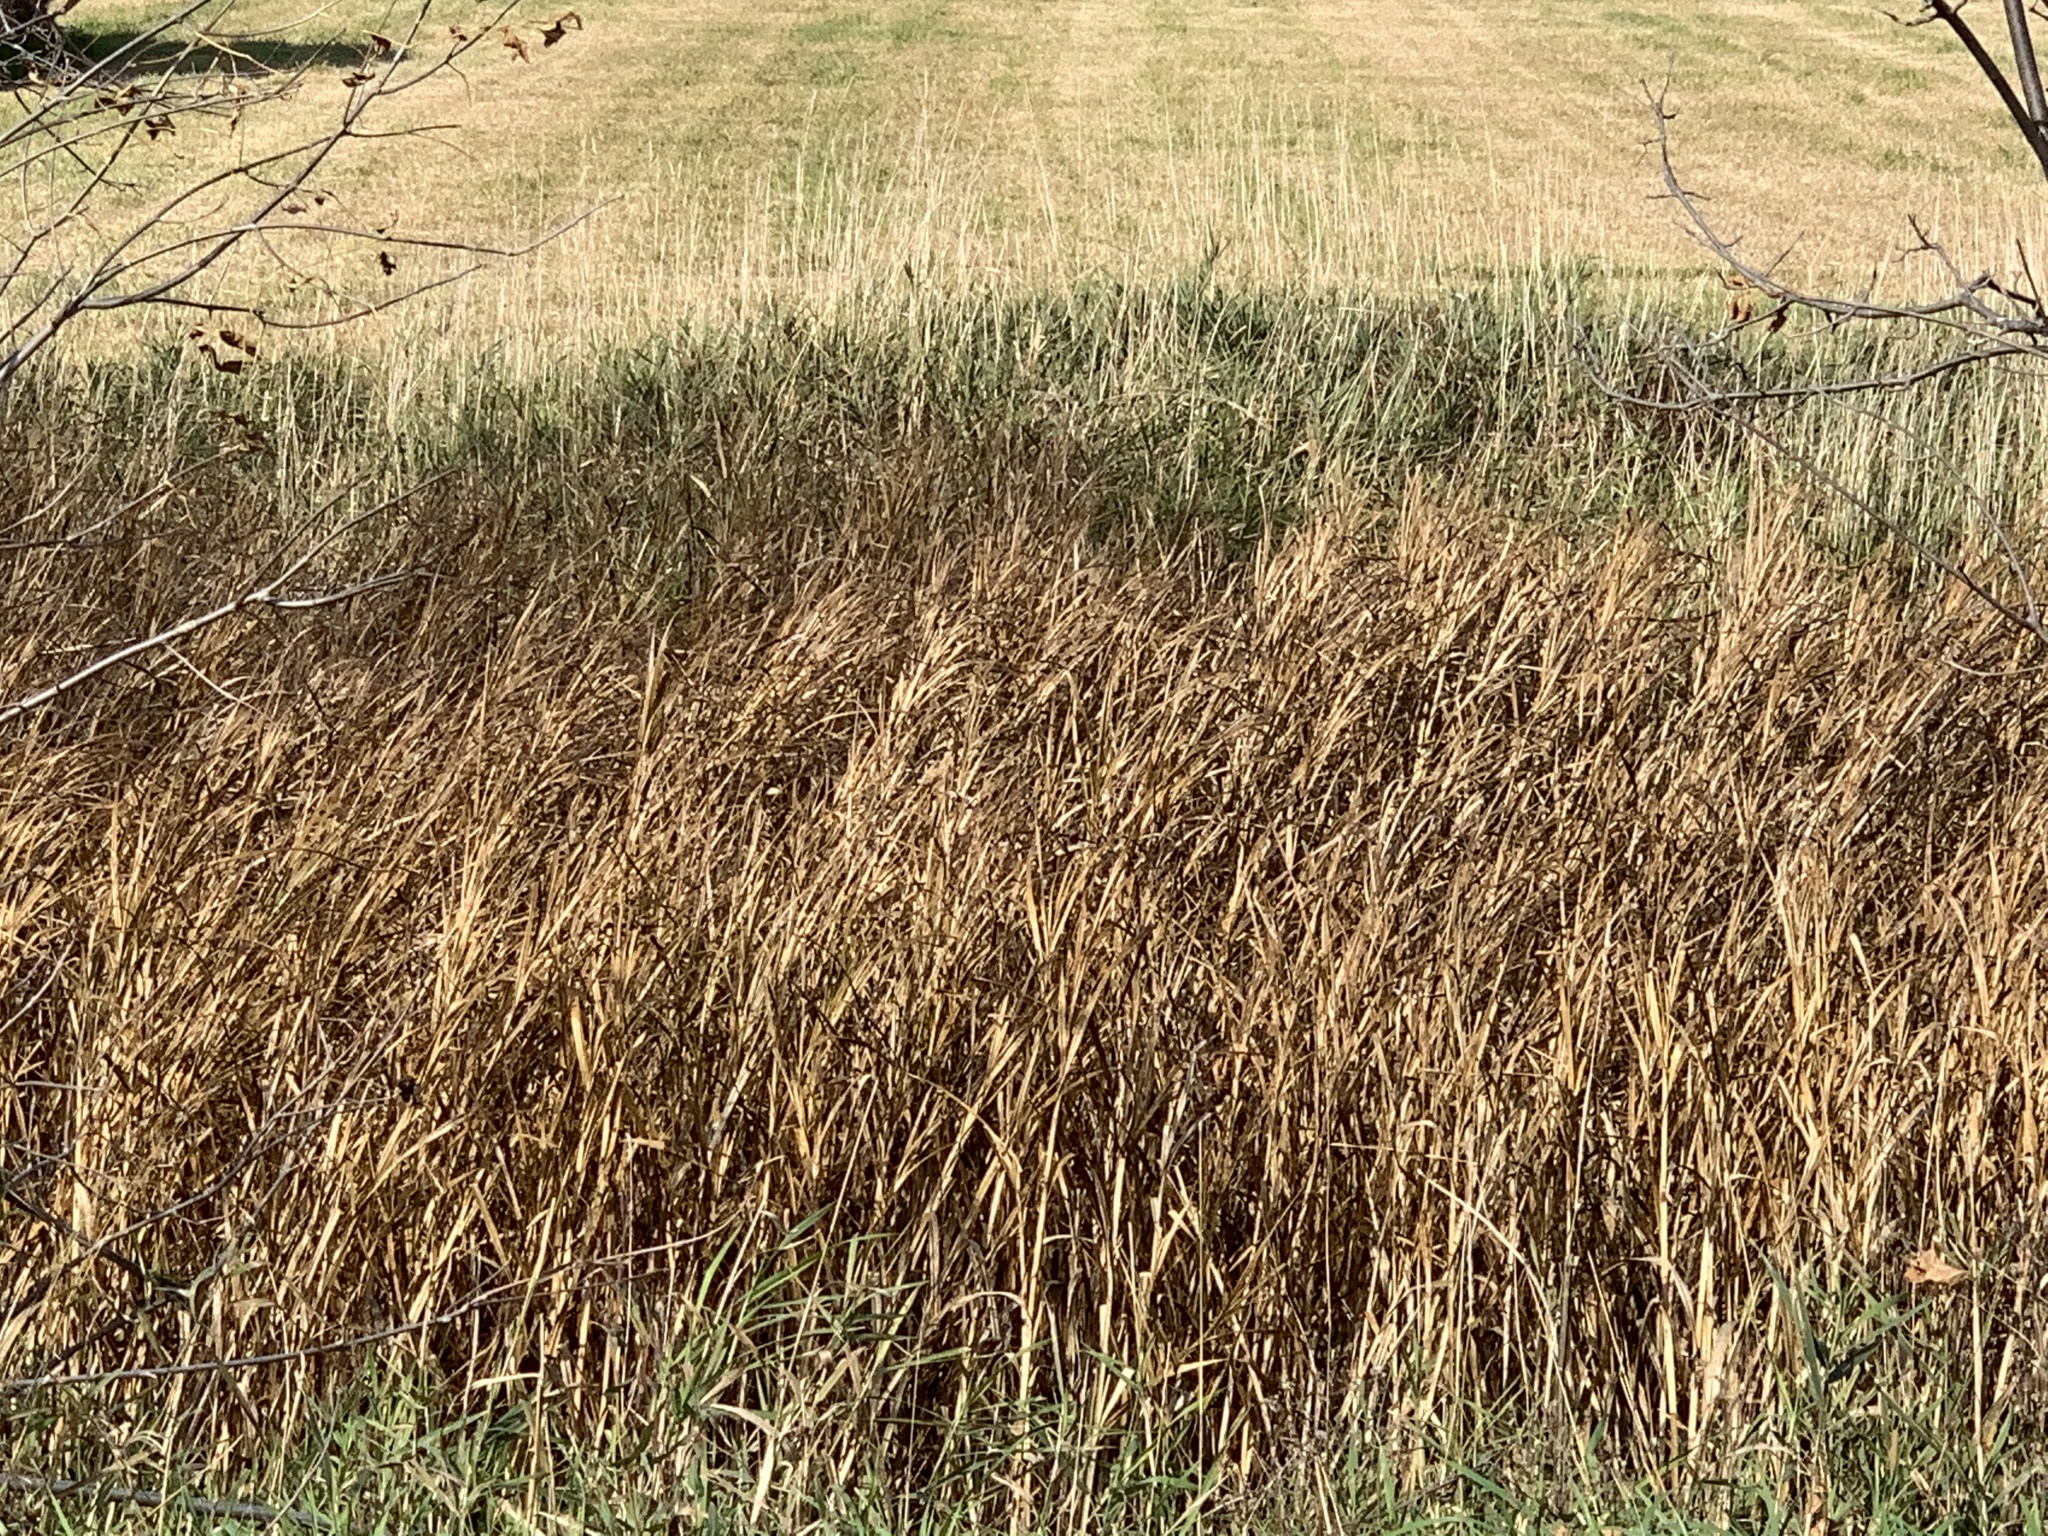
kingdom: Plantae
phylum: Tracheophyta
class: Liliopsida
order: Poales
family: Cyperaceae
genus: Bolboschoenus
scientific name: Bolboschoenus fluviatilis
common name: River bulrush
